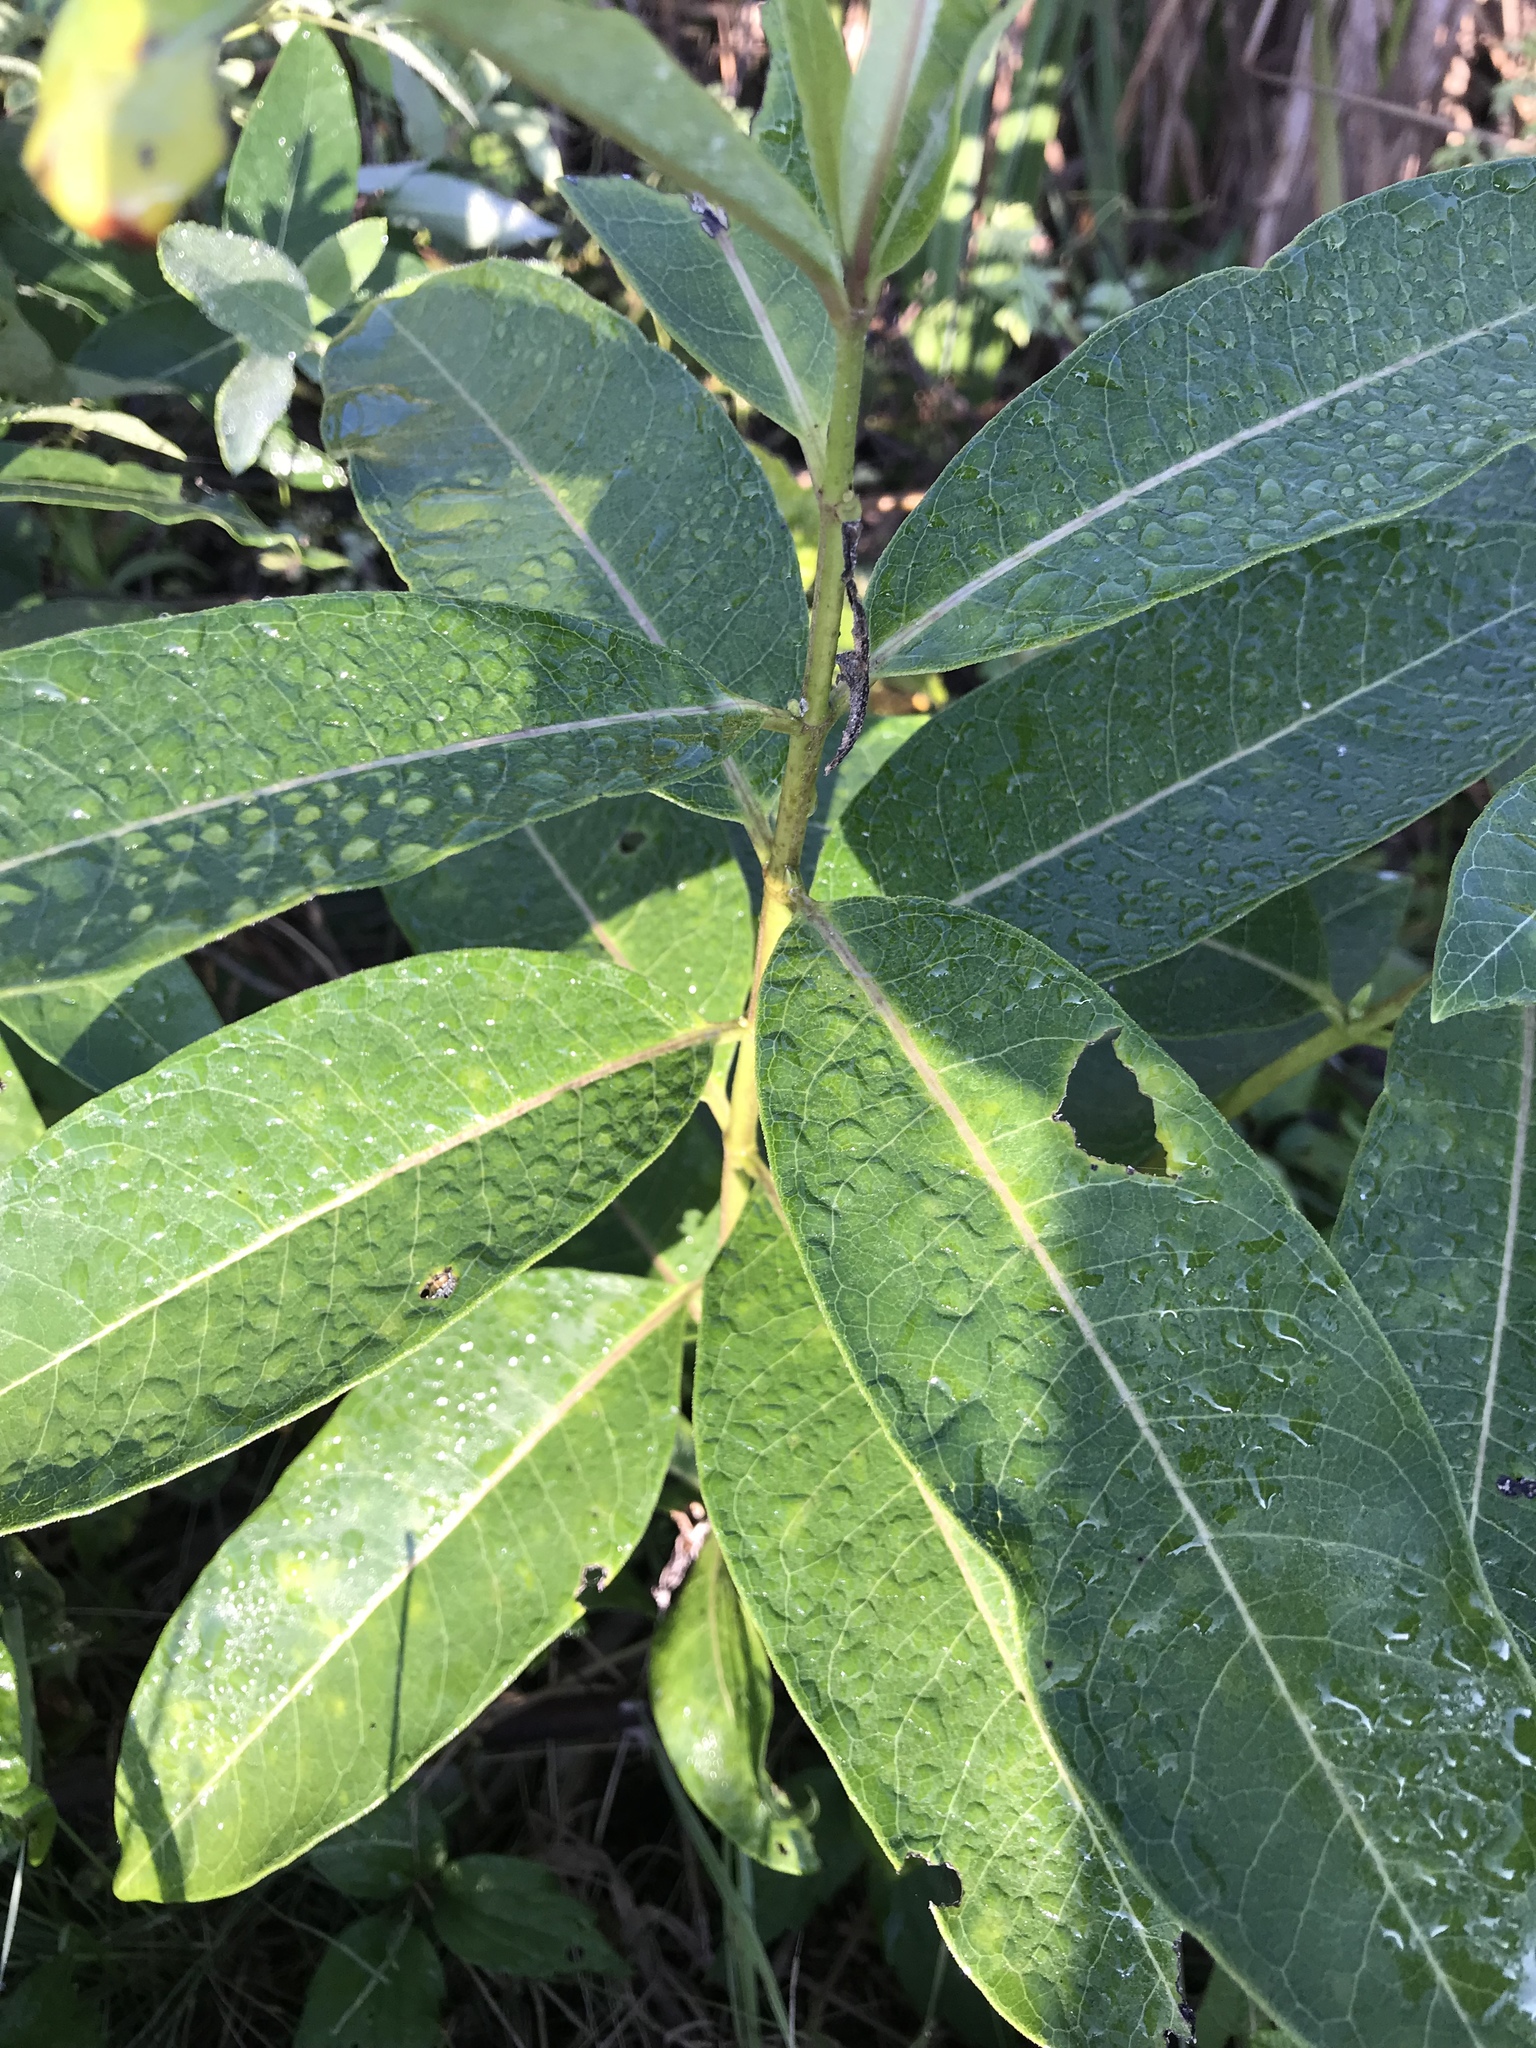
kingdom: Plantae
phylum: Tracheophyta
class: Magnoliopsida
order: Gentianales
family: Apocynaceae
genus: Asclepias
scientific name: Asclepias syriaca
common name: Common milkweed
